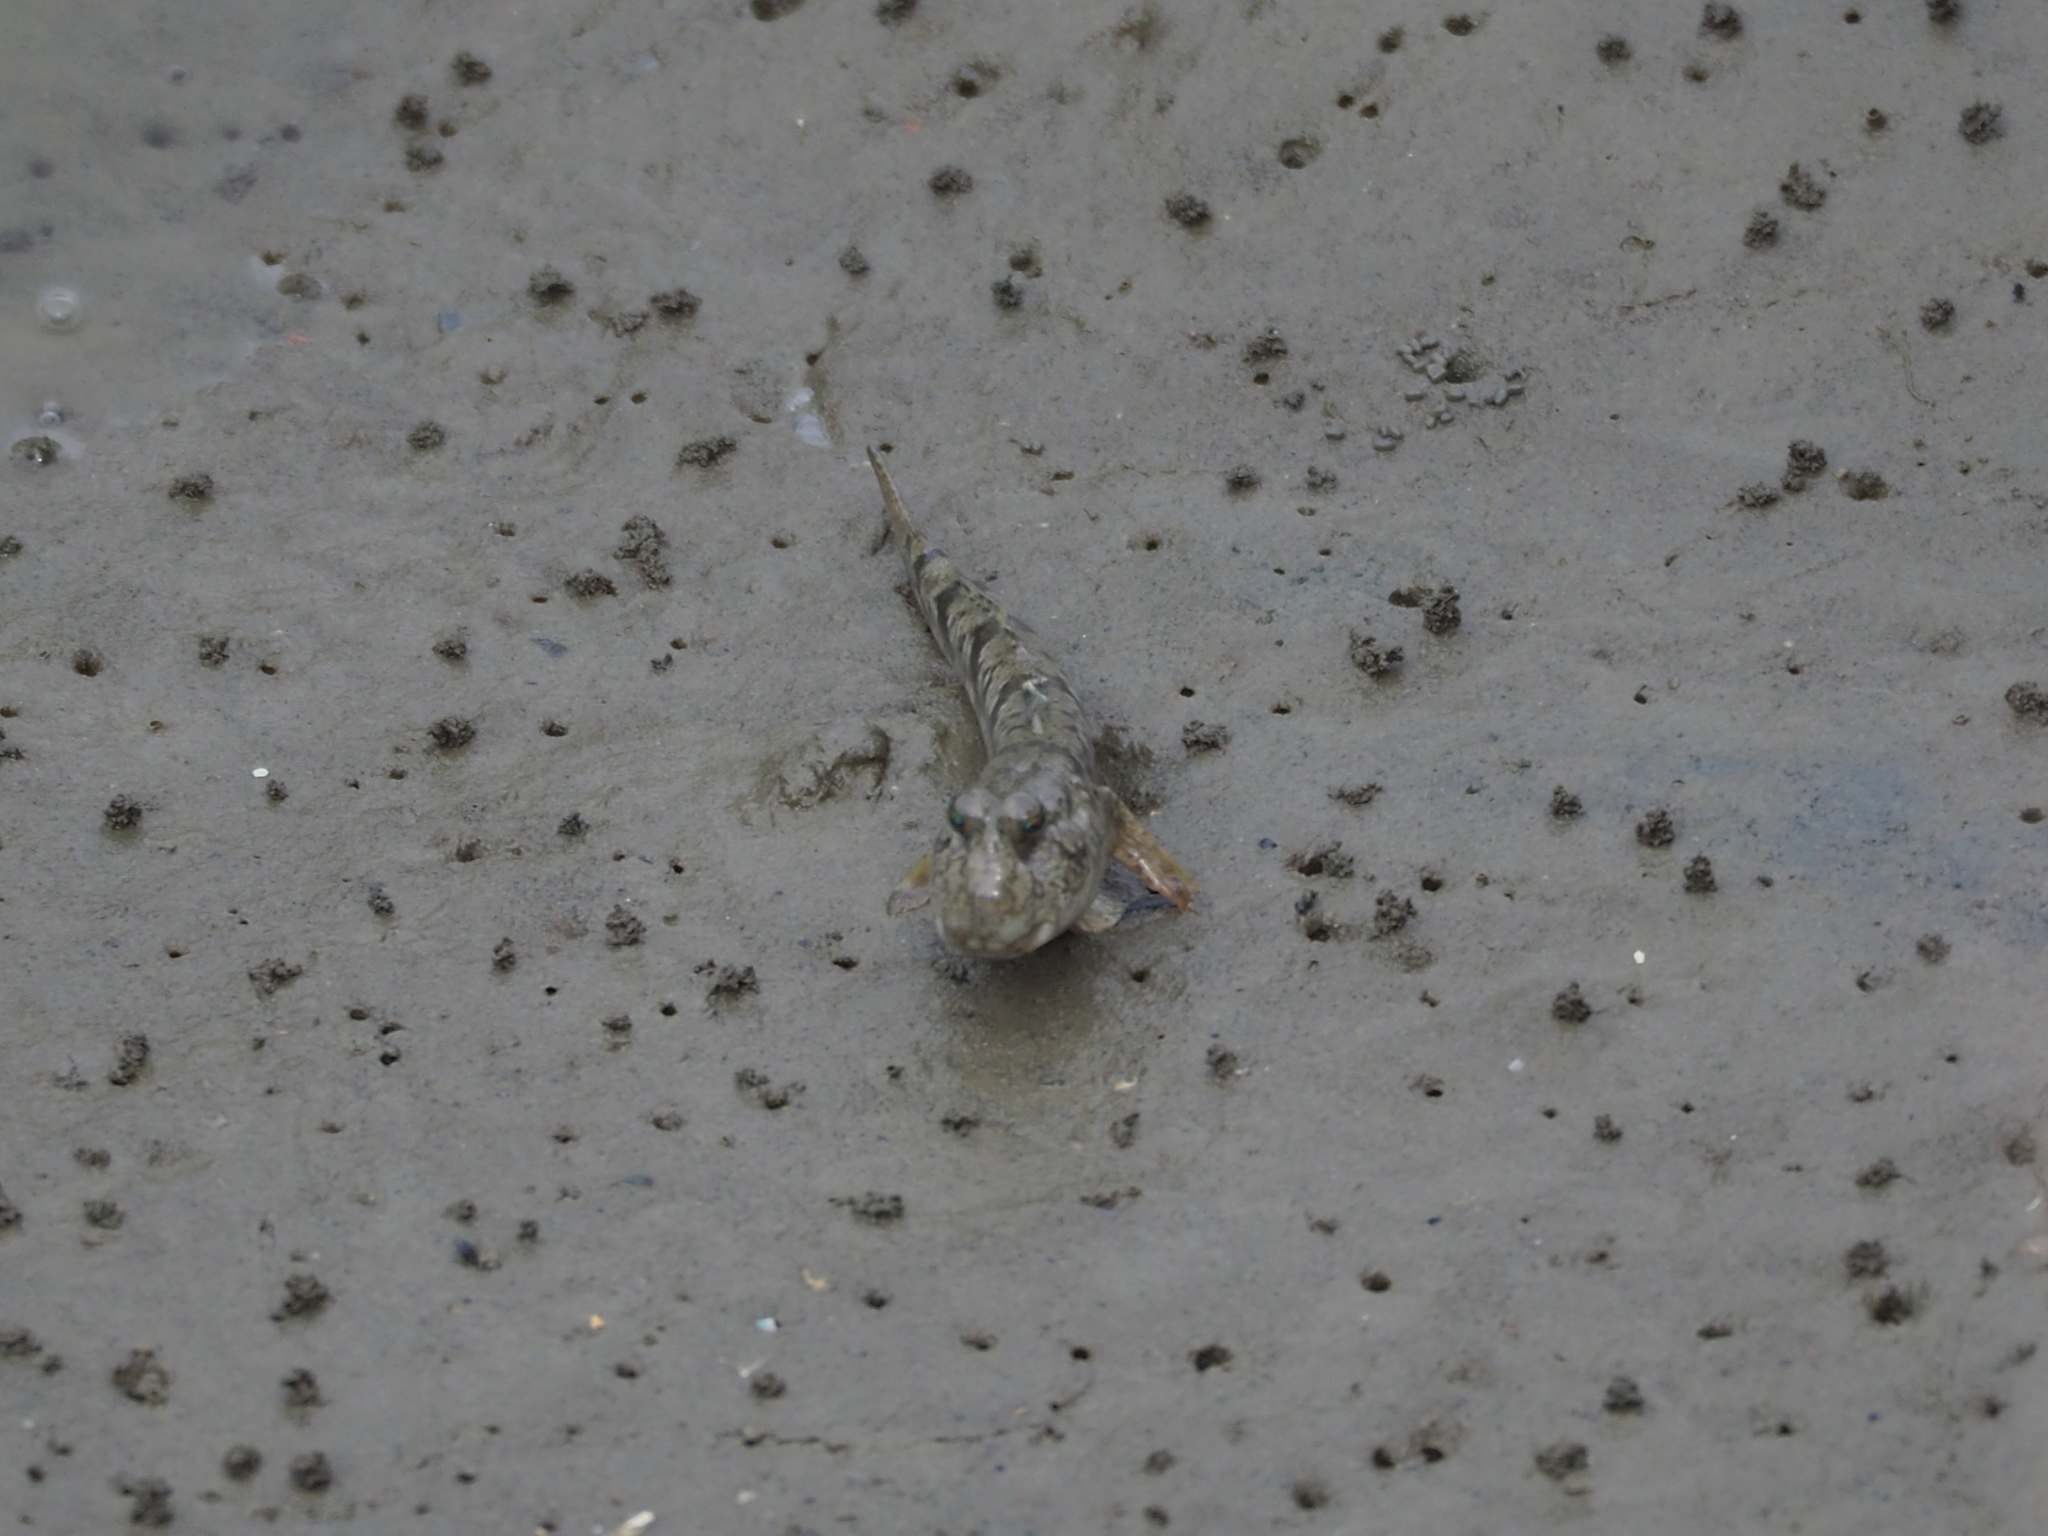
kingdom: Animalia
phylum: Chordata
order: Perciformes
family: Gobiidae
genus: Periophthalmus
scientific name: Periophthalmus modestus
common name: Black goby
